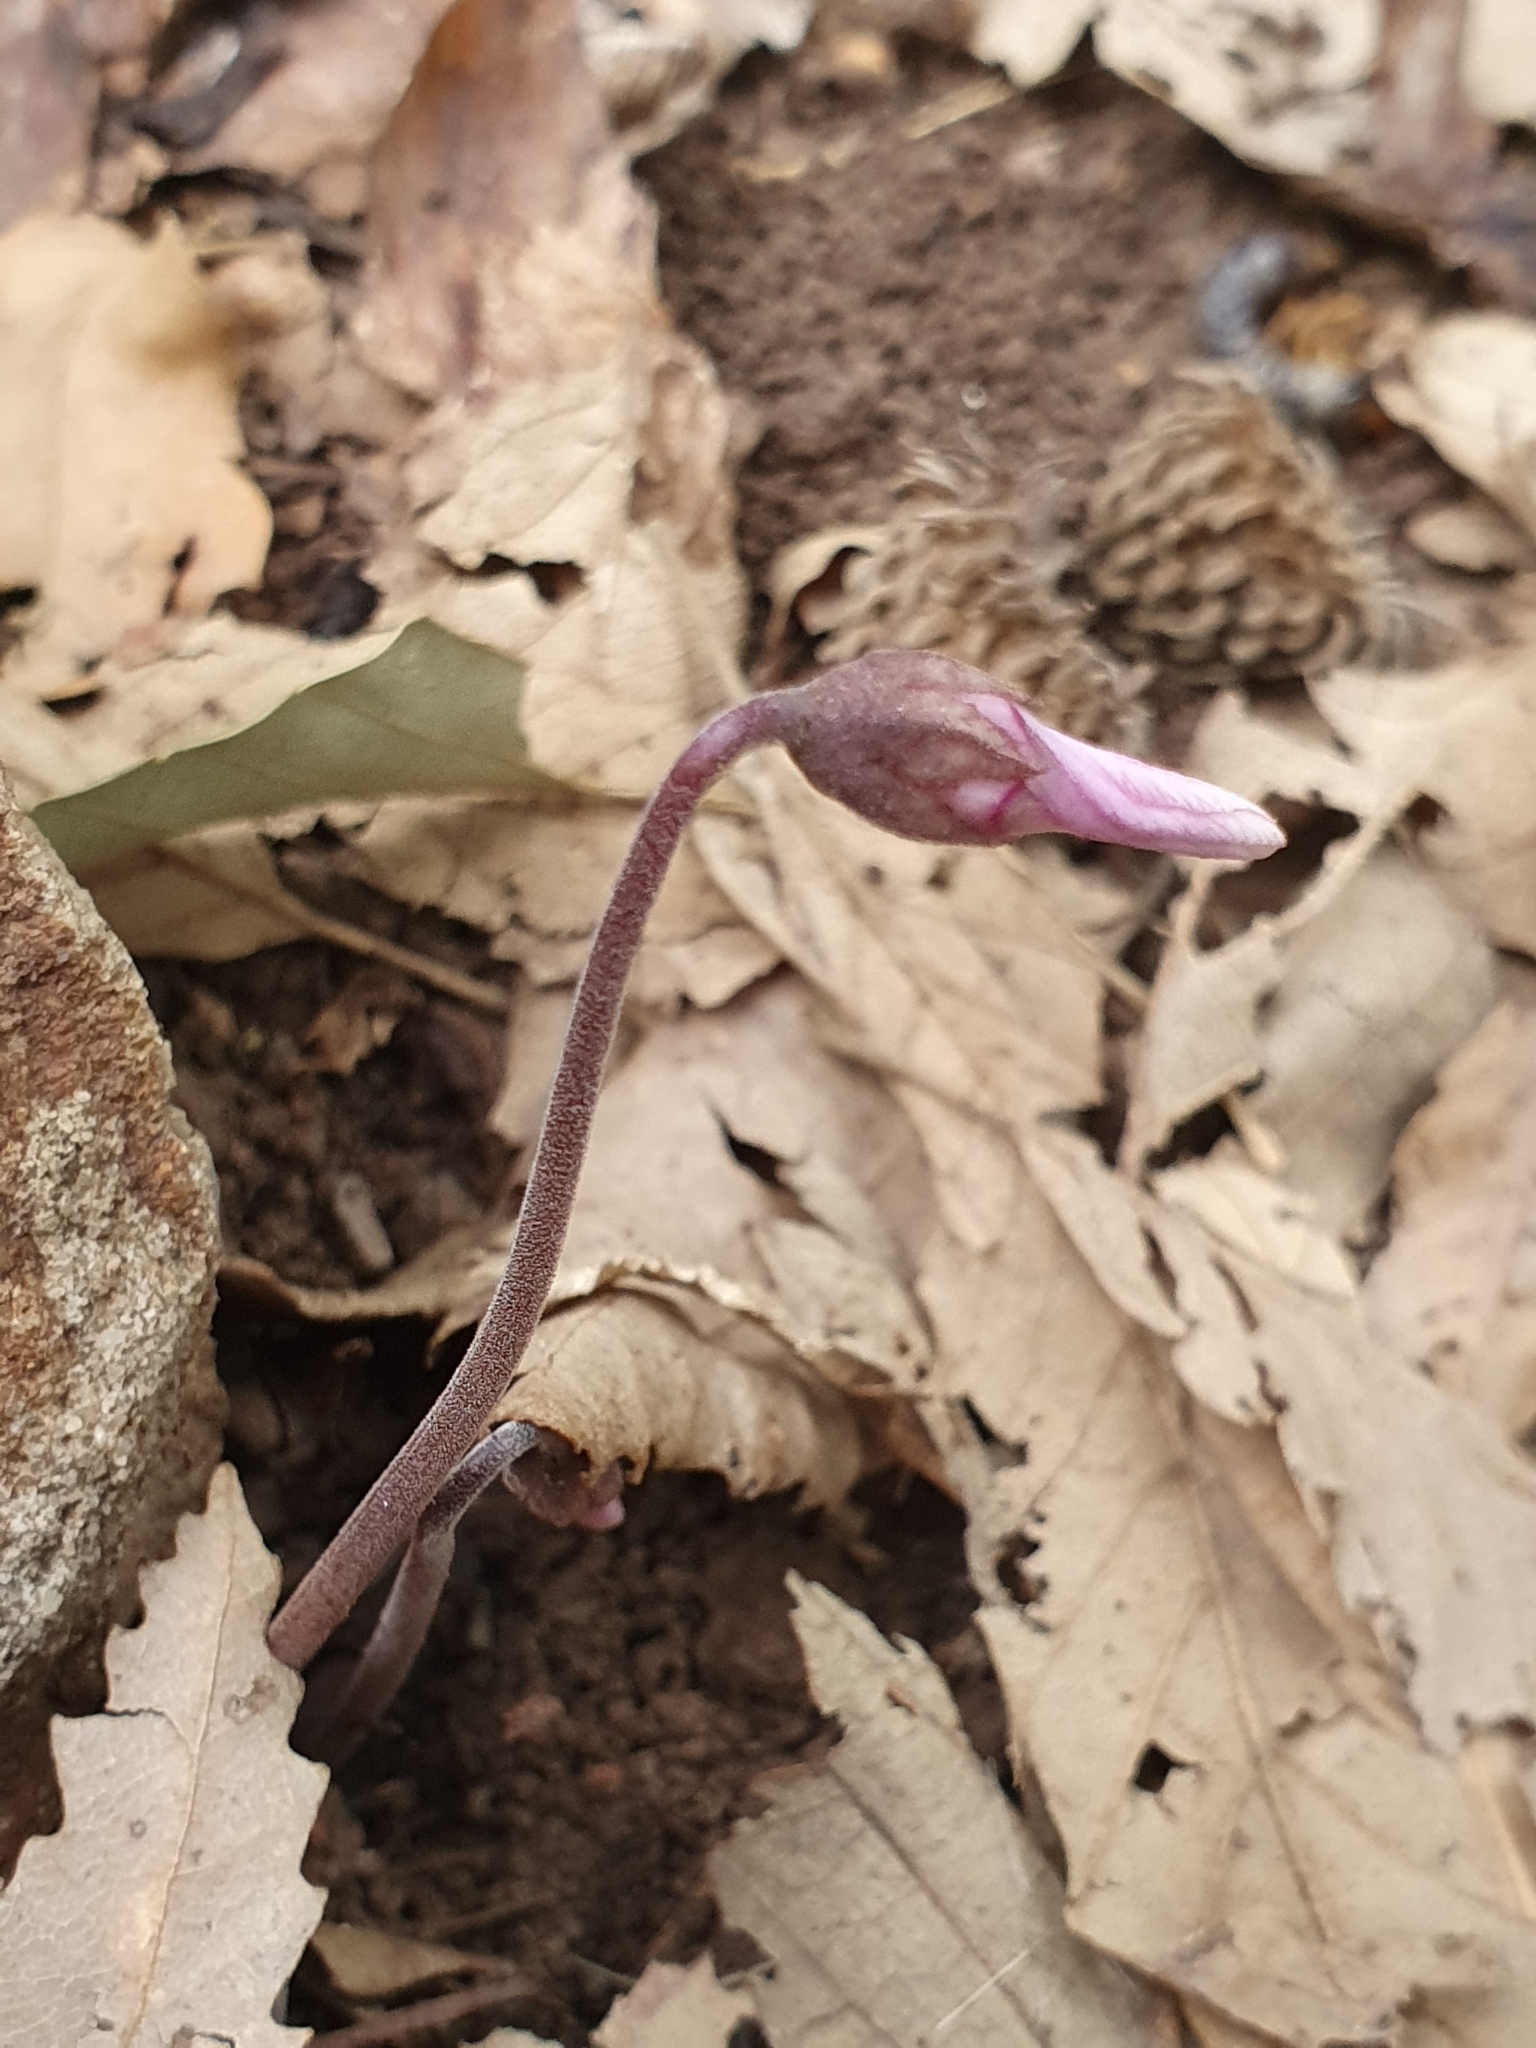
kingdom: Plantae
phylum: Tracheophyta
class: Magnoliopsida
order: Ericales
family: Primulaceae
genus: Cyclamen
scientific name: Cyclamen africanum
